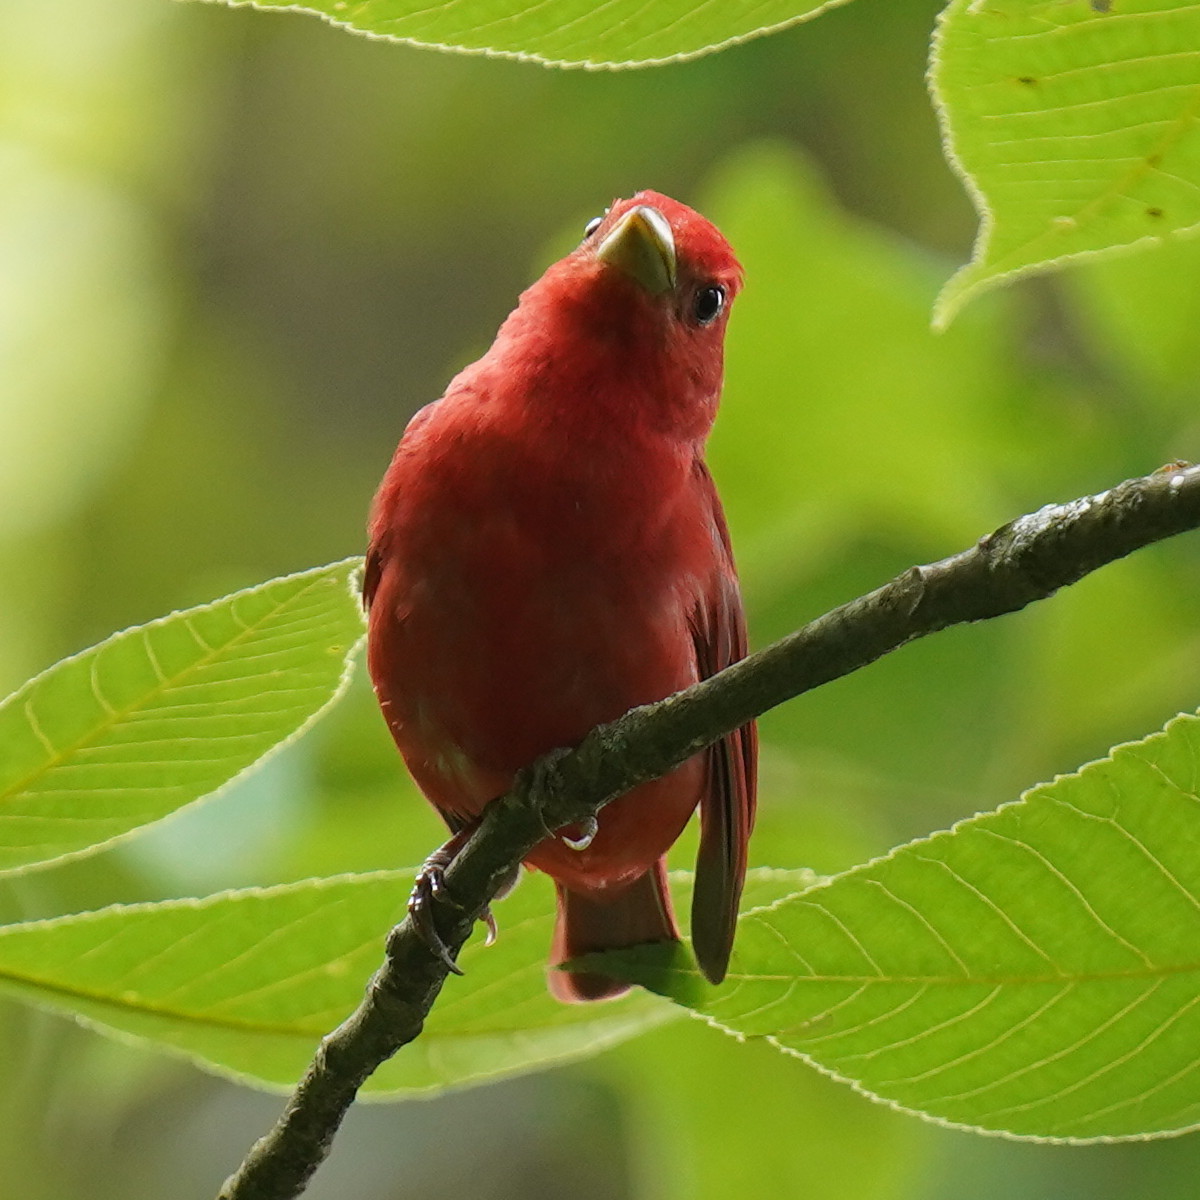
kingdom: Animalia
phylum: Chordata
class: Aves
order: Passeriformes
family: Cardinalidae
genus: Piranga
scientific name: Piranga rubra
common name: Summer tanager
